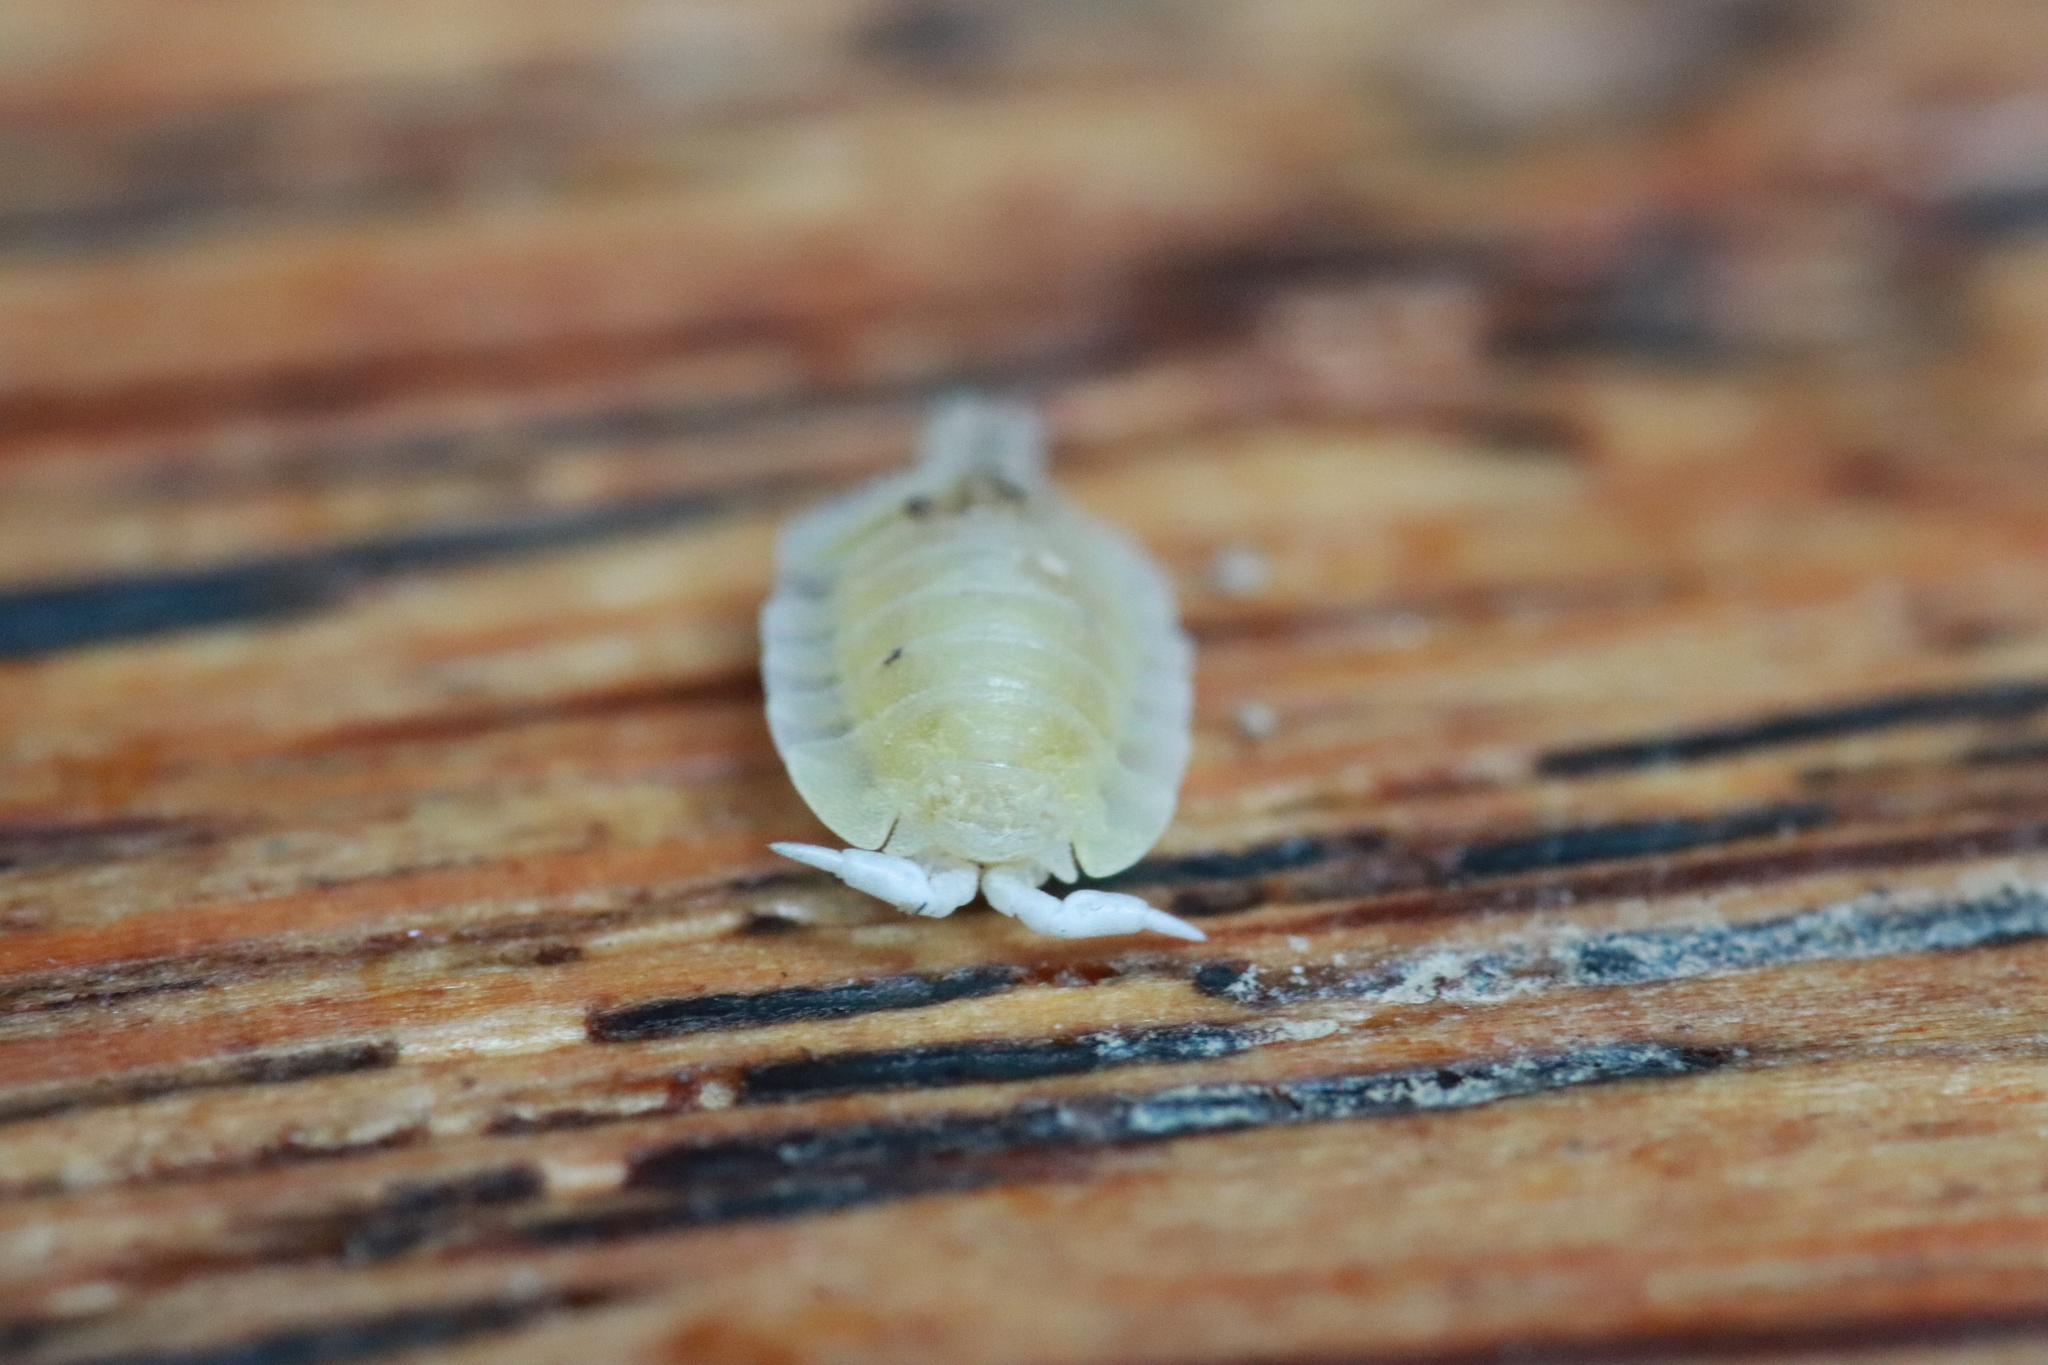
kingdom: Animalia
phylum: Arthropoda
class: Malacostraca
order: Isopoda
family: Platyarthridae
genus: Platyarthrus
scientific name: Platyarthrus hoffmannseggii
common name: Ant woodlouse
